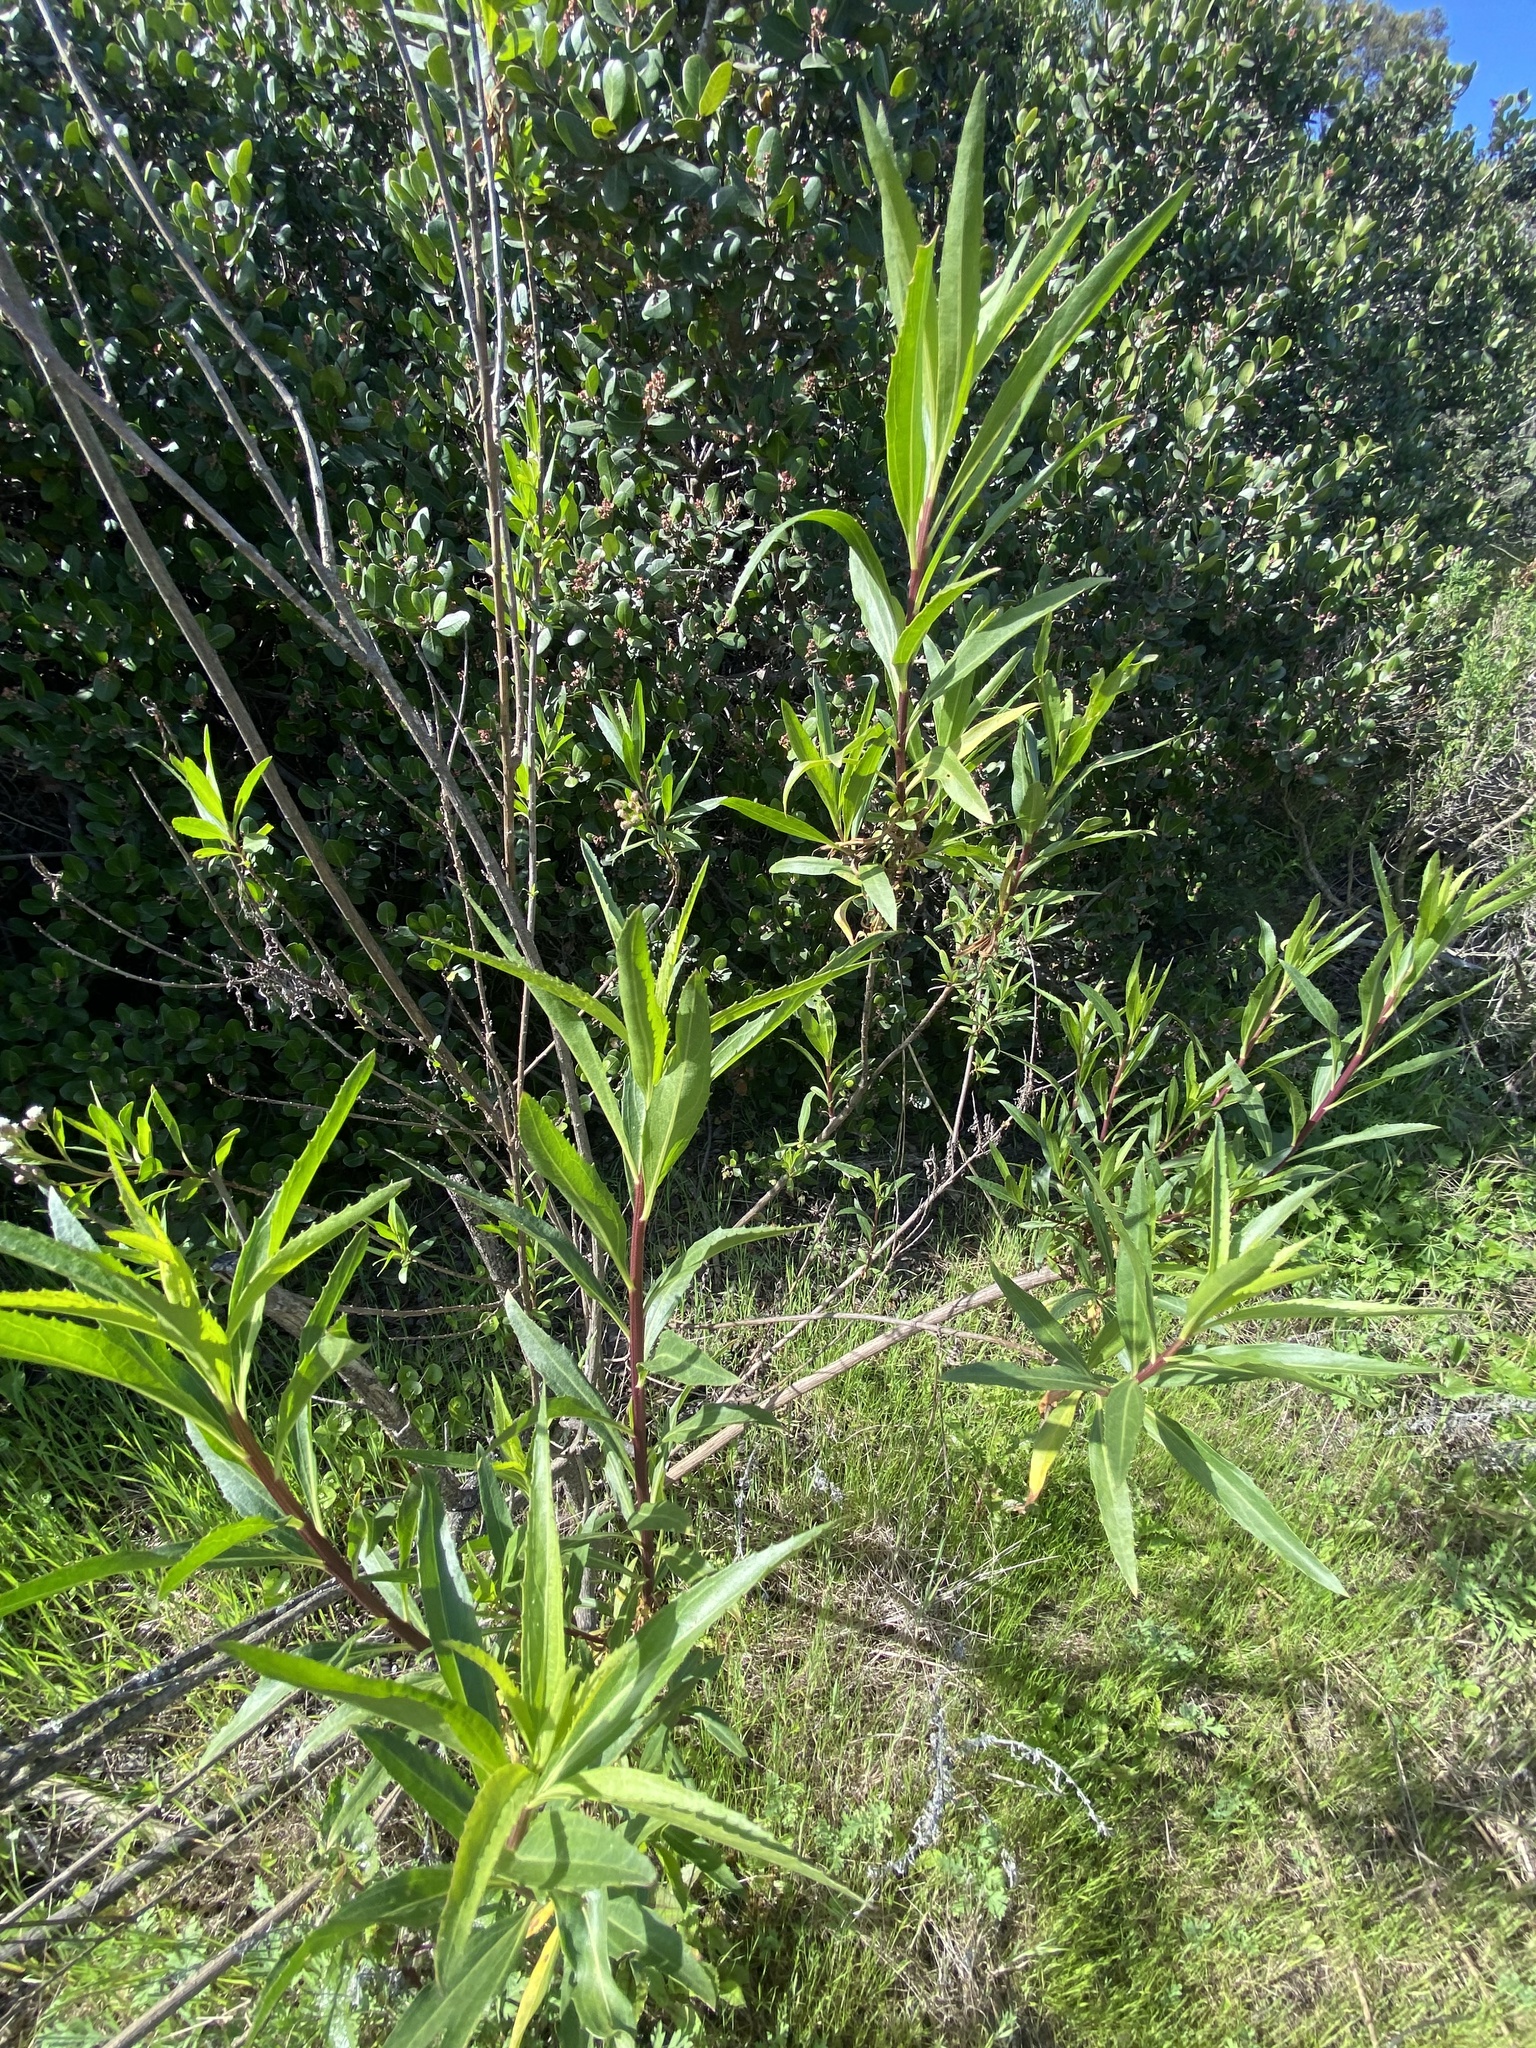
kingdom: Plantae
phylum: Tracheophyta
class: Magnoliopsida
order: Asterales
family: Asteraceae
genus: Baccharis
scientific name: Baccharis salicifolia
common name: Sticky baccharis
